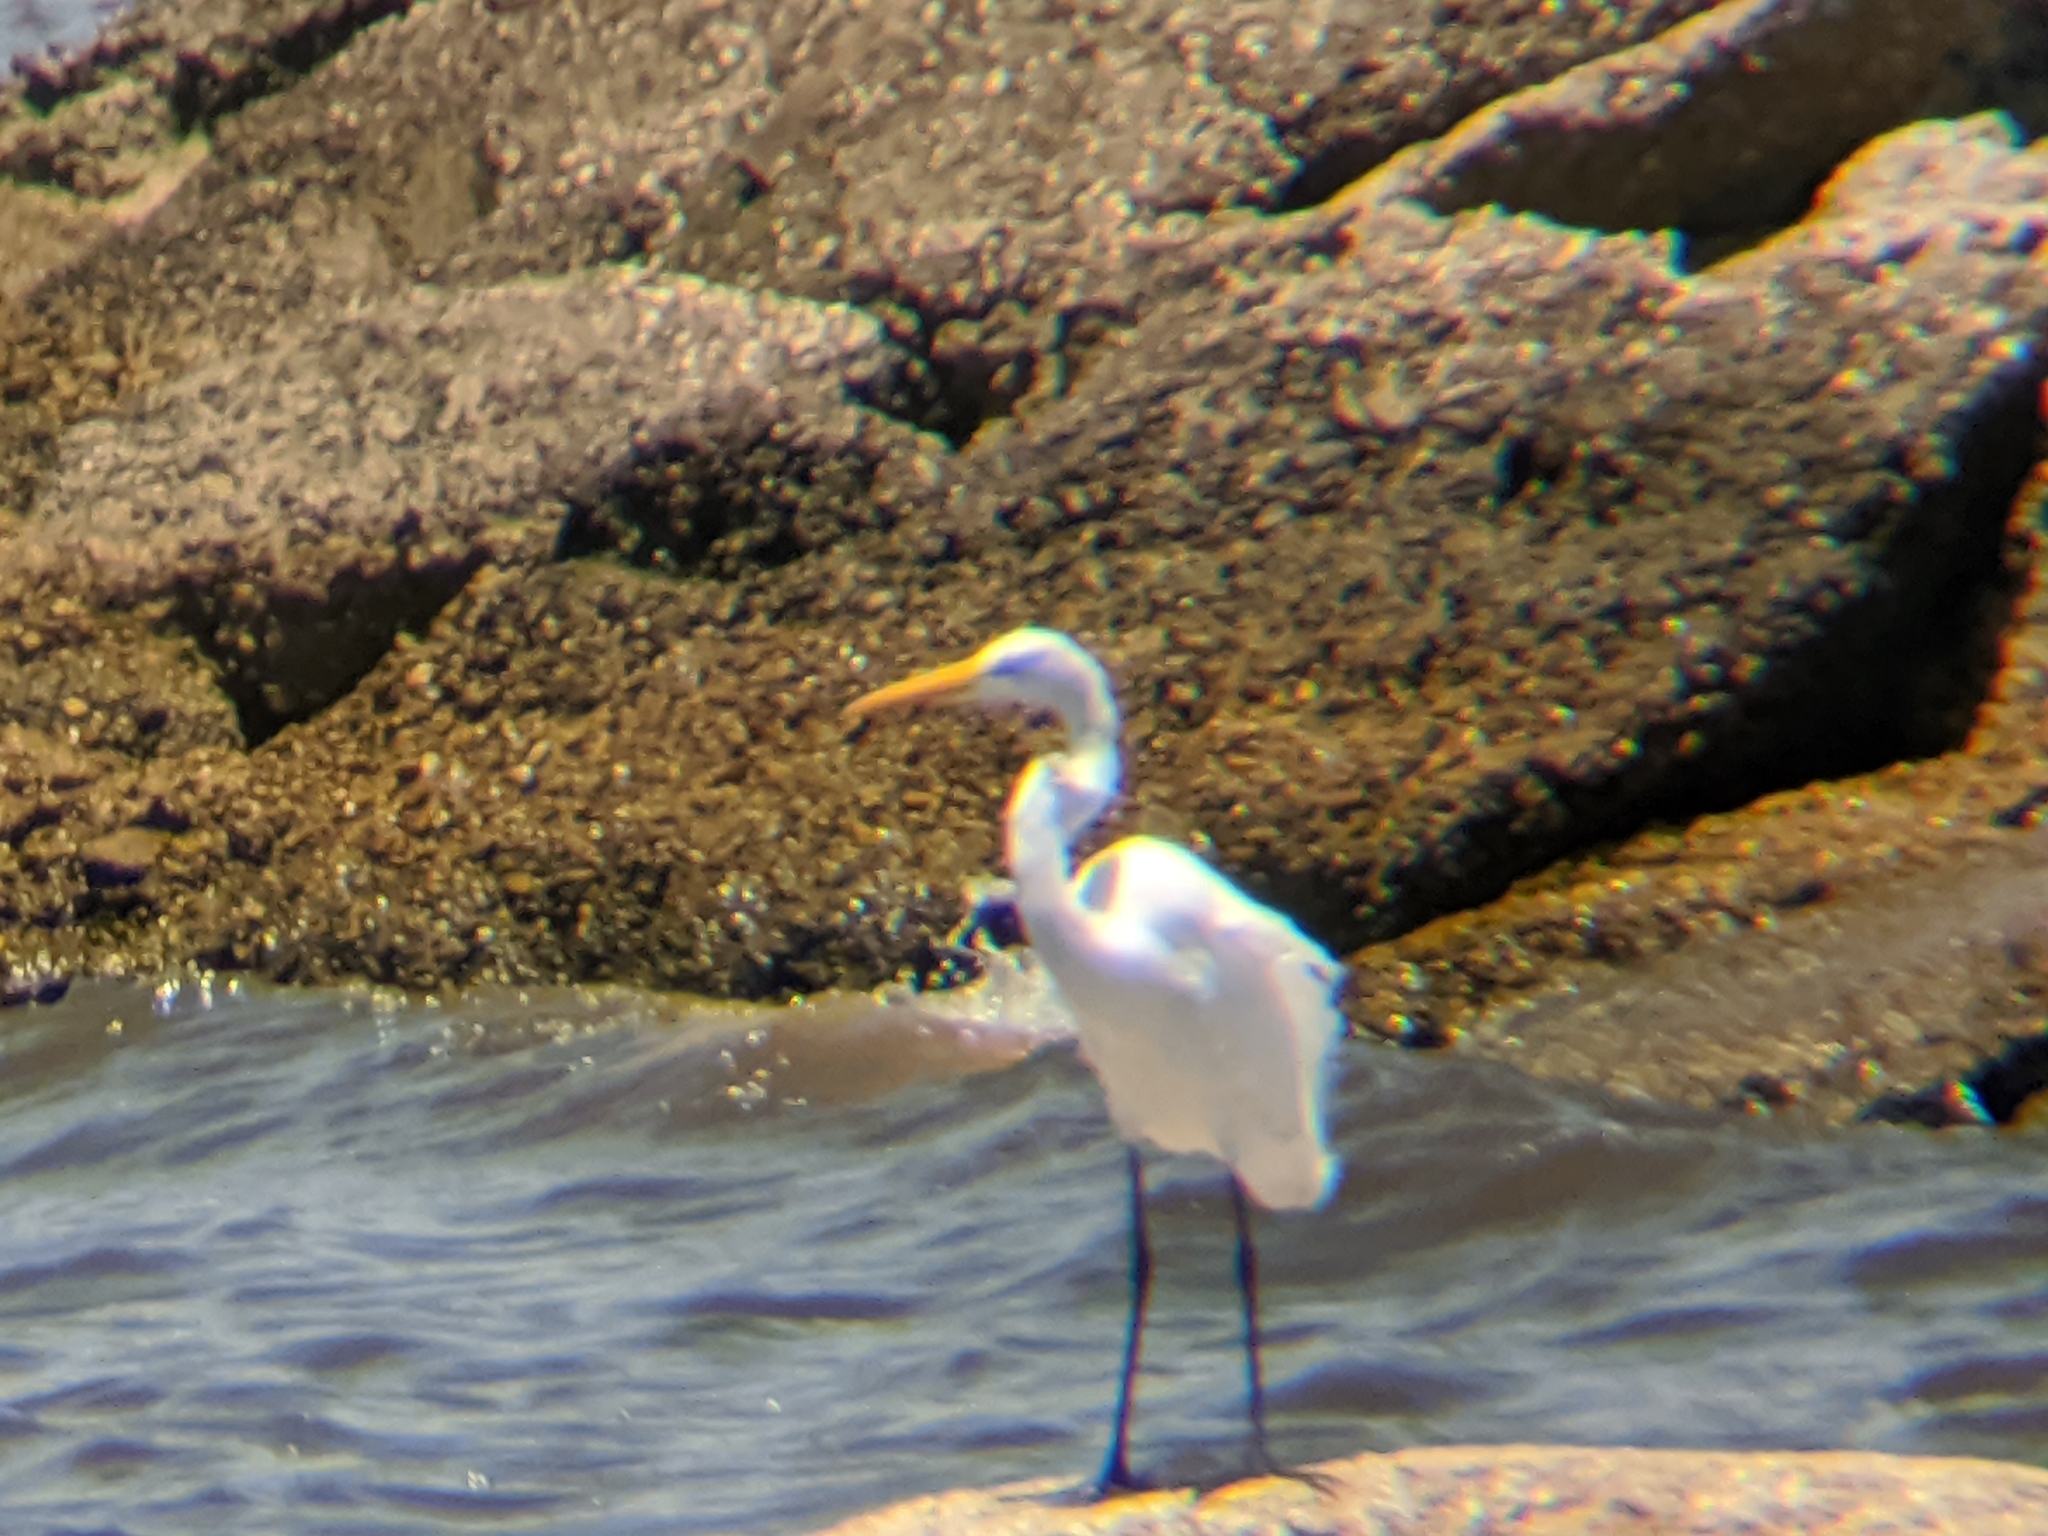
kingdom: Animalia
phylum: Chordata
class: Aves
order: Pelecaniformes
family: Ardeidae
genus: Ardea
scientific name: Ardea alba
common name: Great egret
